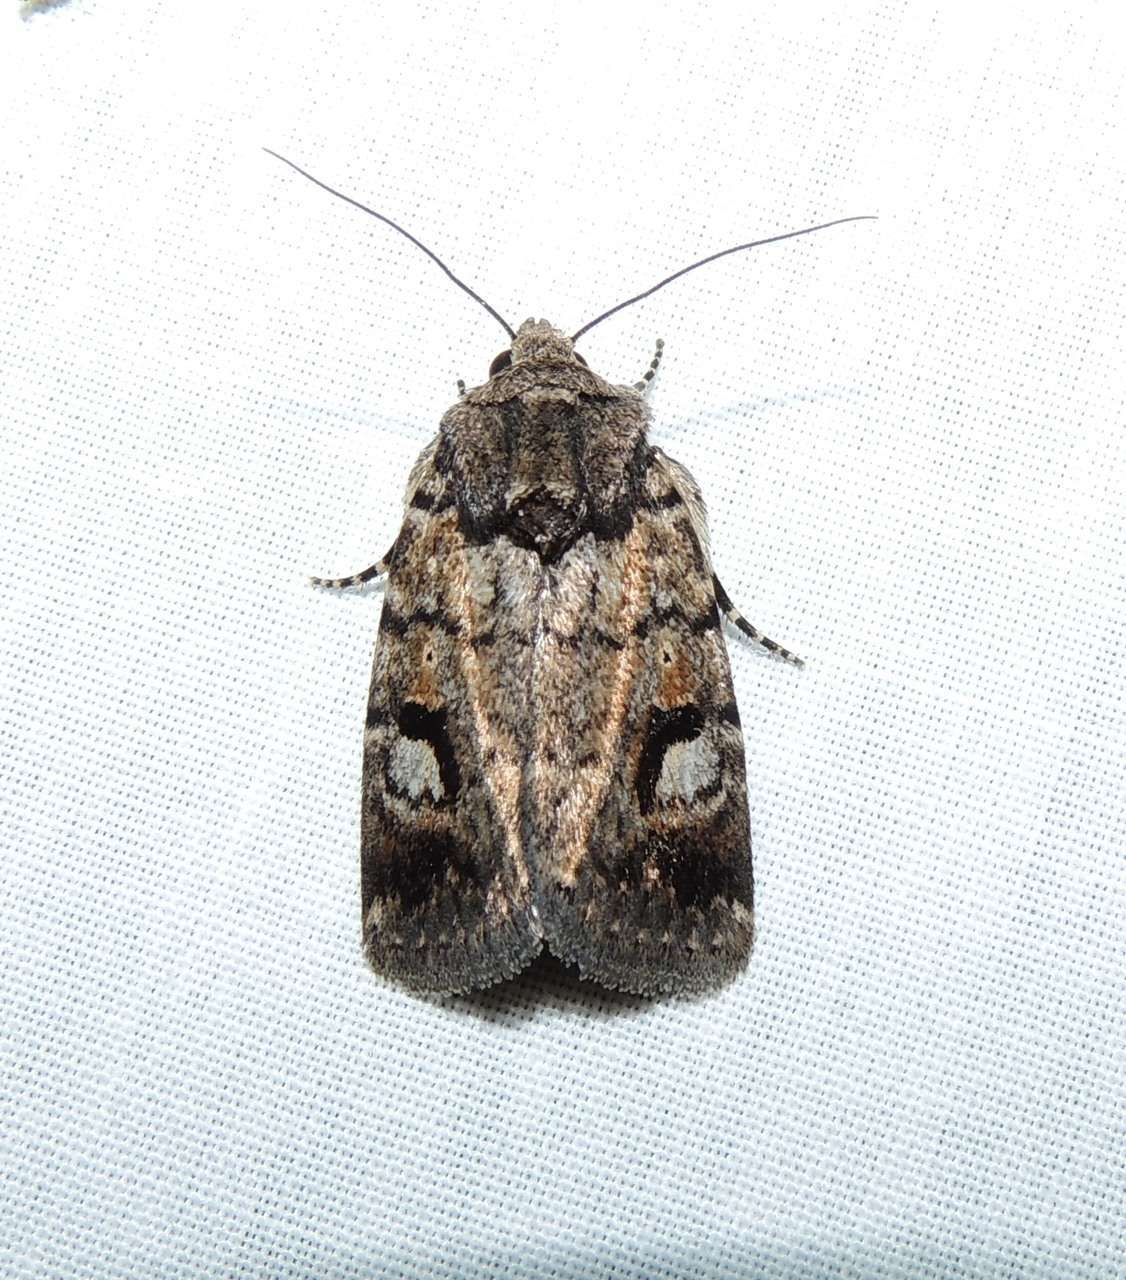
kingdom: Animalia
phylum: Arthropoda
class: Insecta
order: Lepidoptera
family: Noctuidae
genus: Thoracolopha
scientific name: Thoracolopha verecunda
